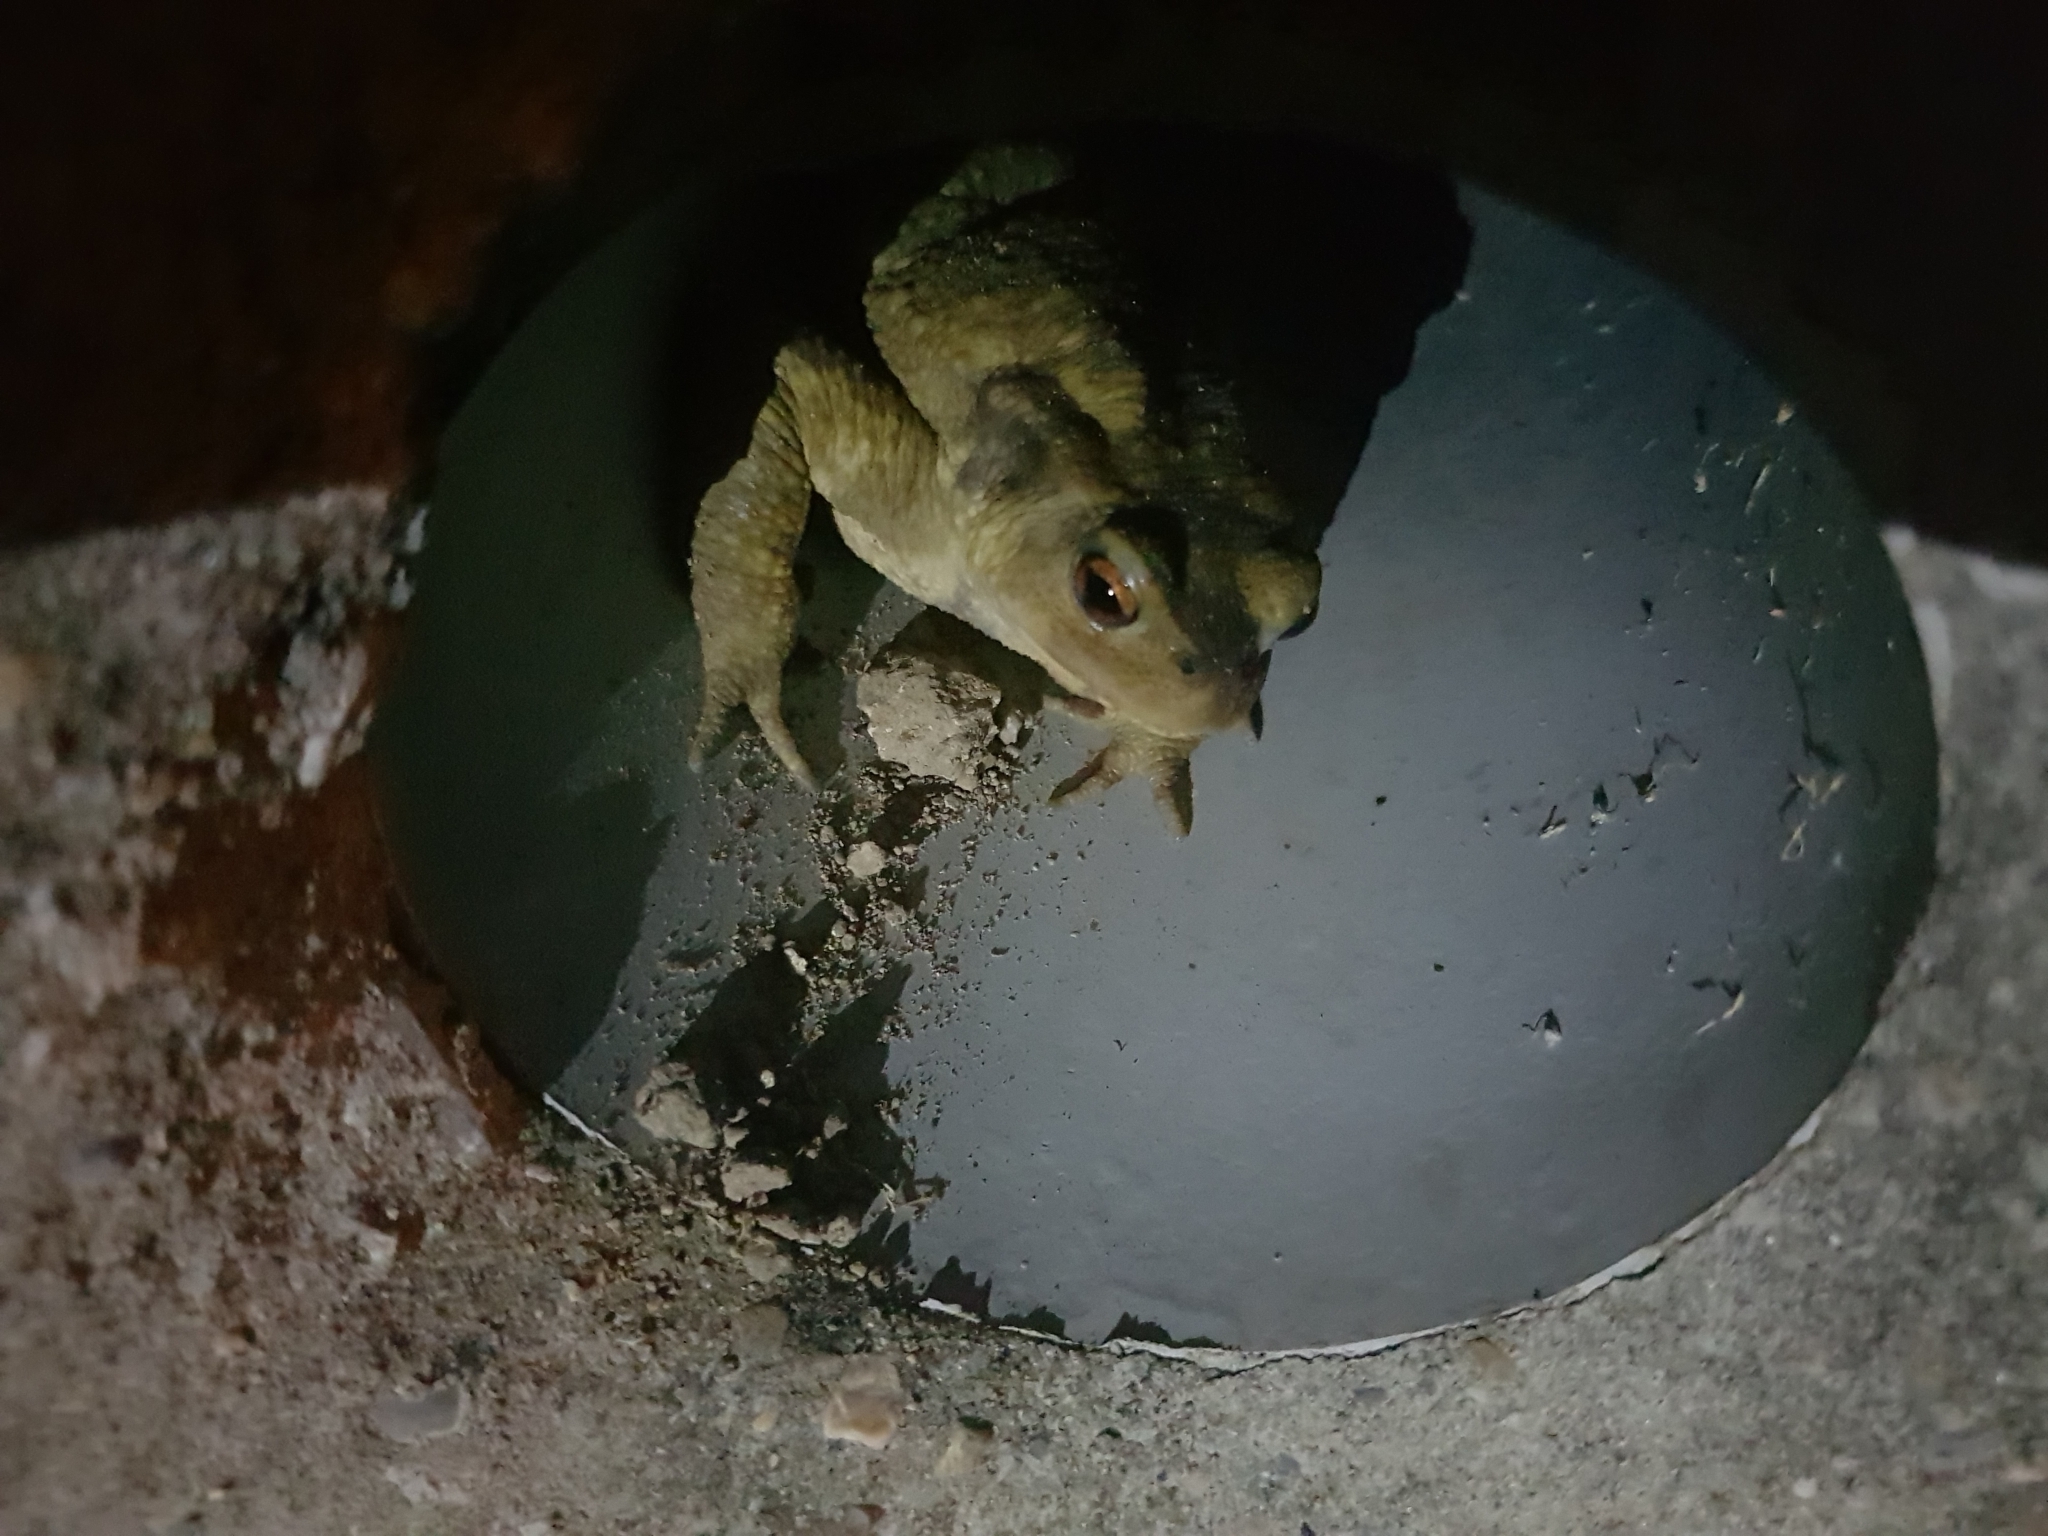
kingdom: Animalia
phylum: Chordata
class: Amphibia
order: Anura
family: Bufonidae
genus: Bufo
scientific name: Bufo spinosus
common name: Western common toad
